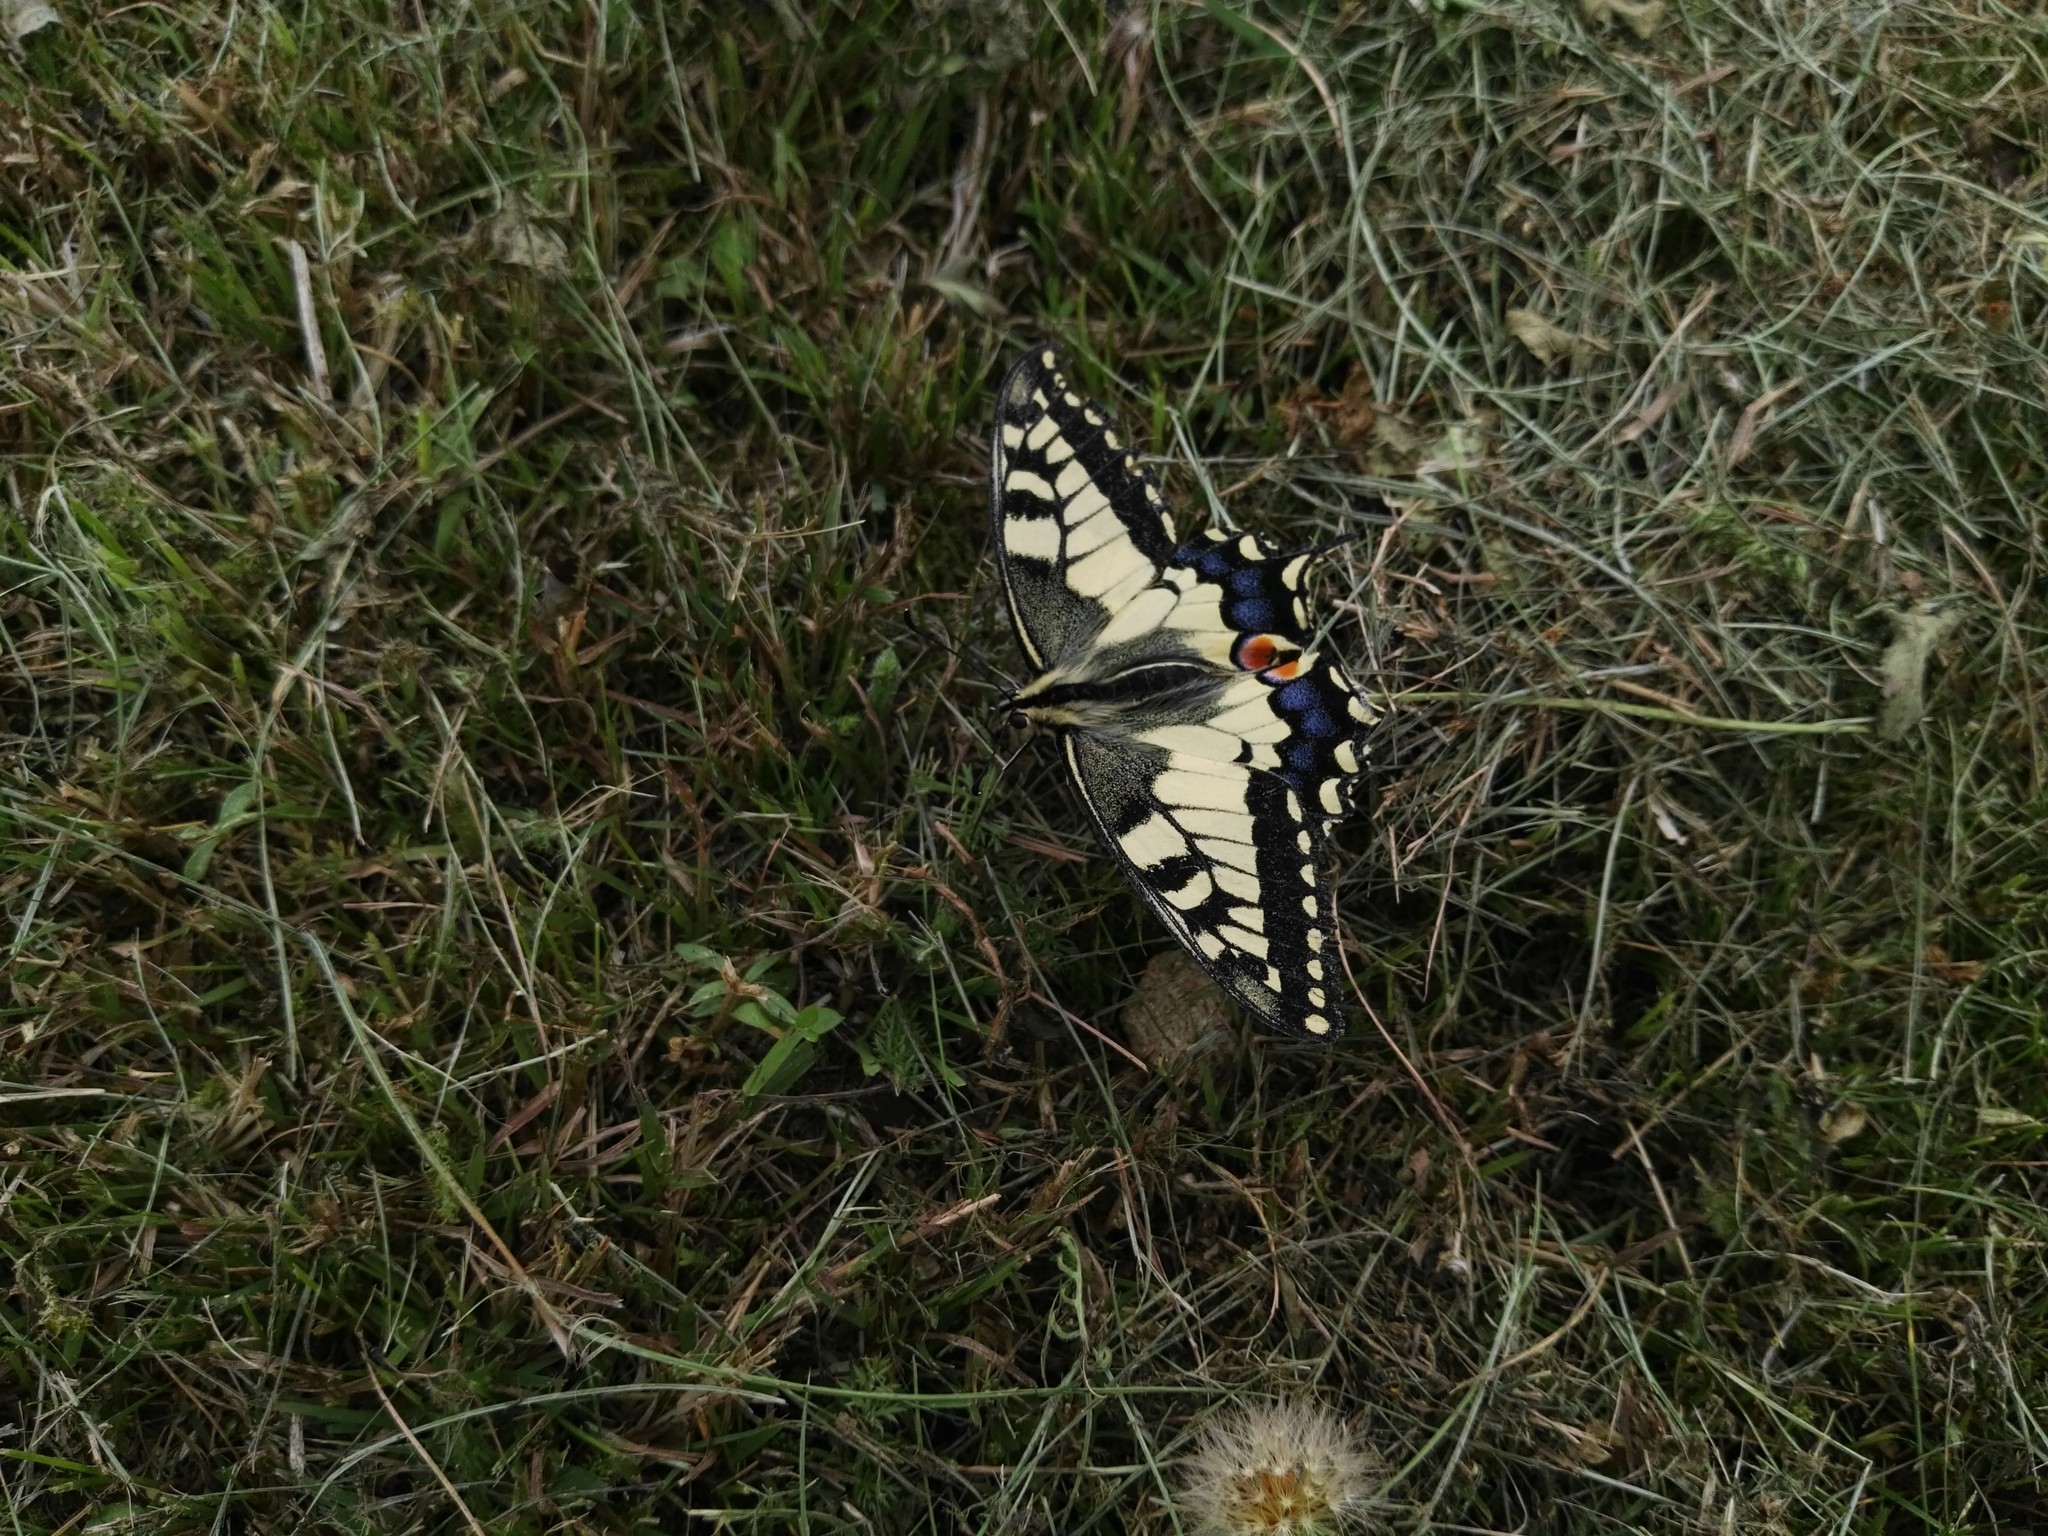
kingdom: Animalia
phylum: Arthropoda
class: Insecta
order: Lepidoptera
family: Papilionidae
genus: Papilio
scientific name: Papilio machaon
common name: Swallowtail
